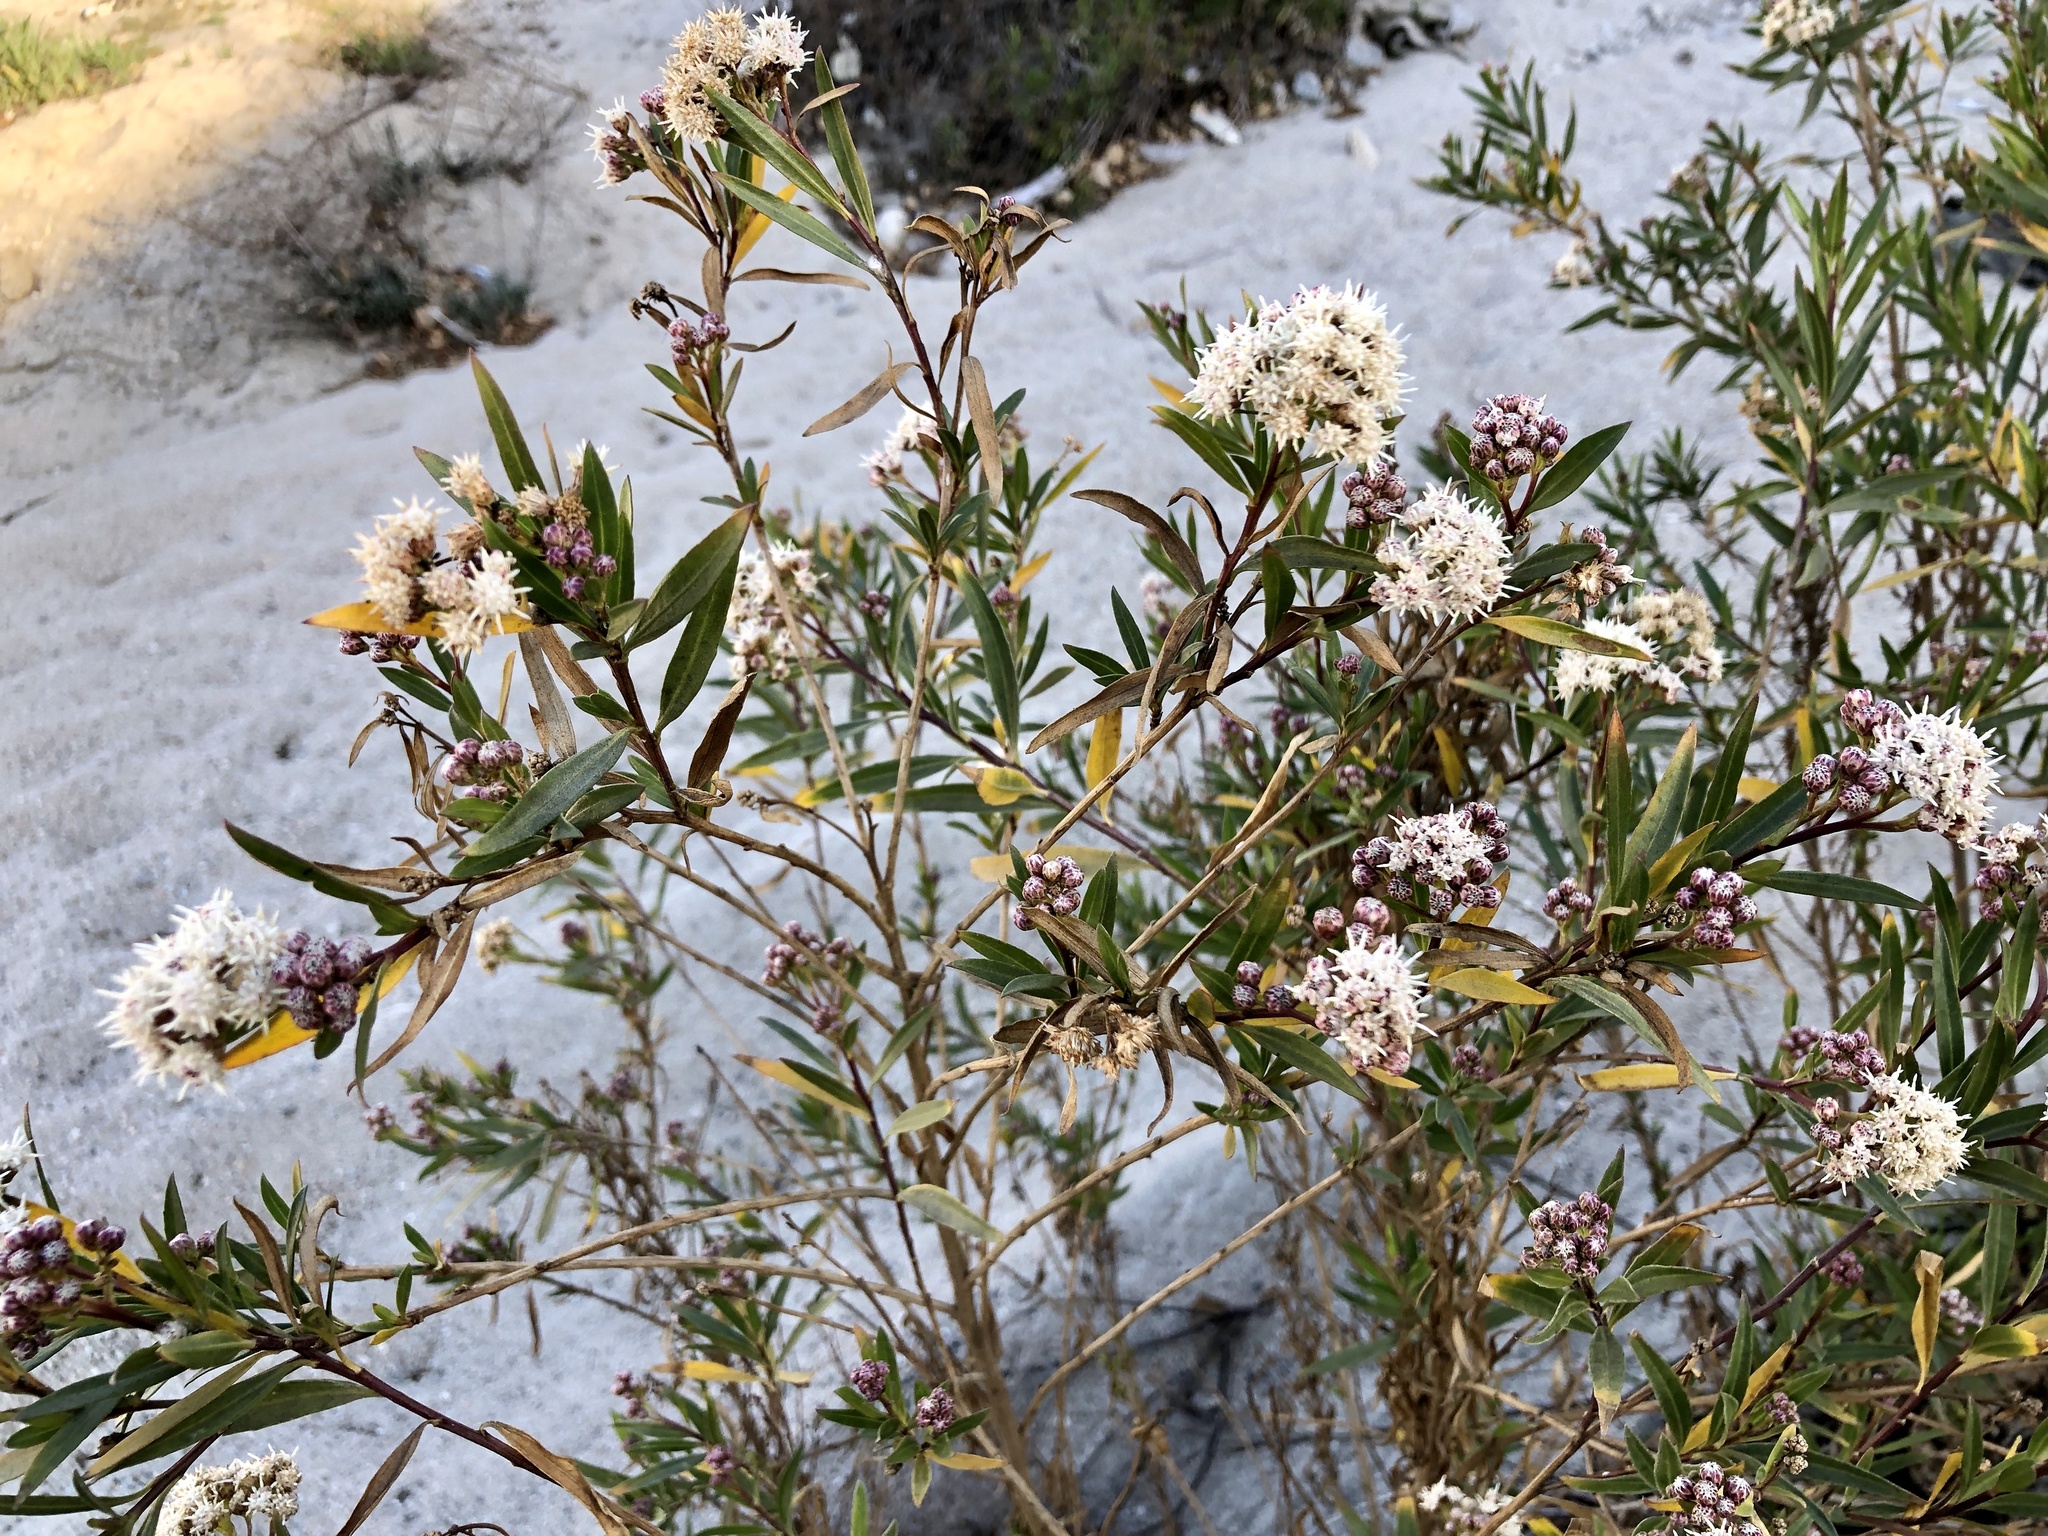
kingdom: Plantae
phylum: Tracheophyta
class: Magnoliopsida
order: Asterales
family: Asteraceae
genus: Baccharis
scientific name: Baccharis salicifolia
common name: Sticky baccharis
